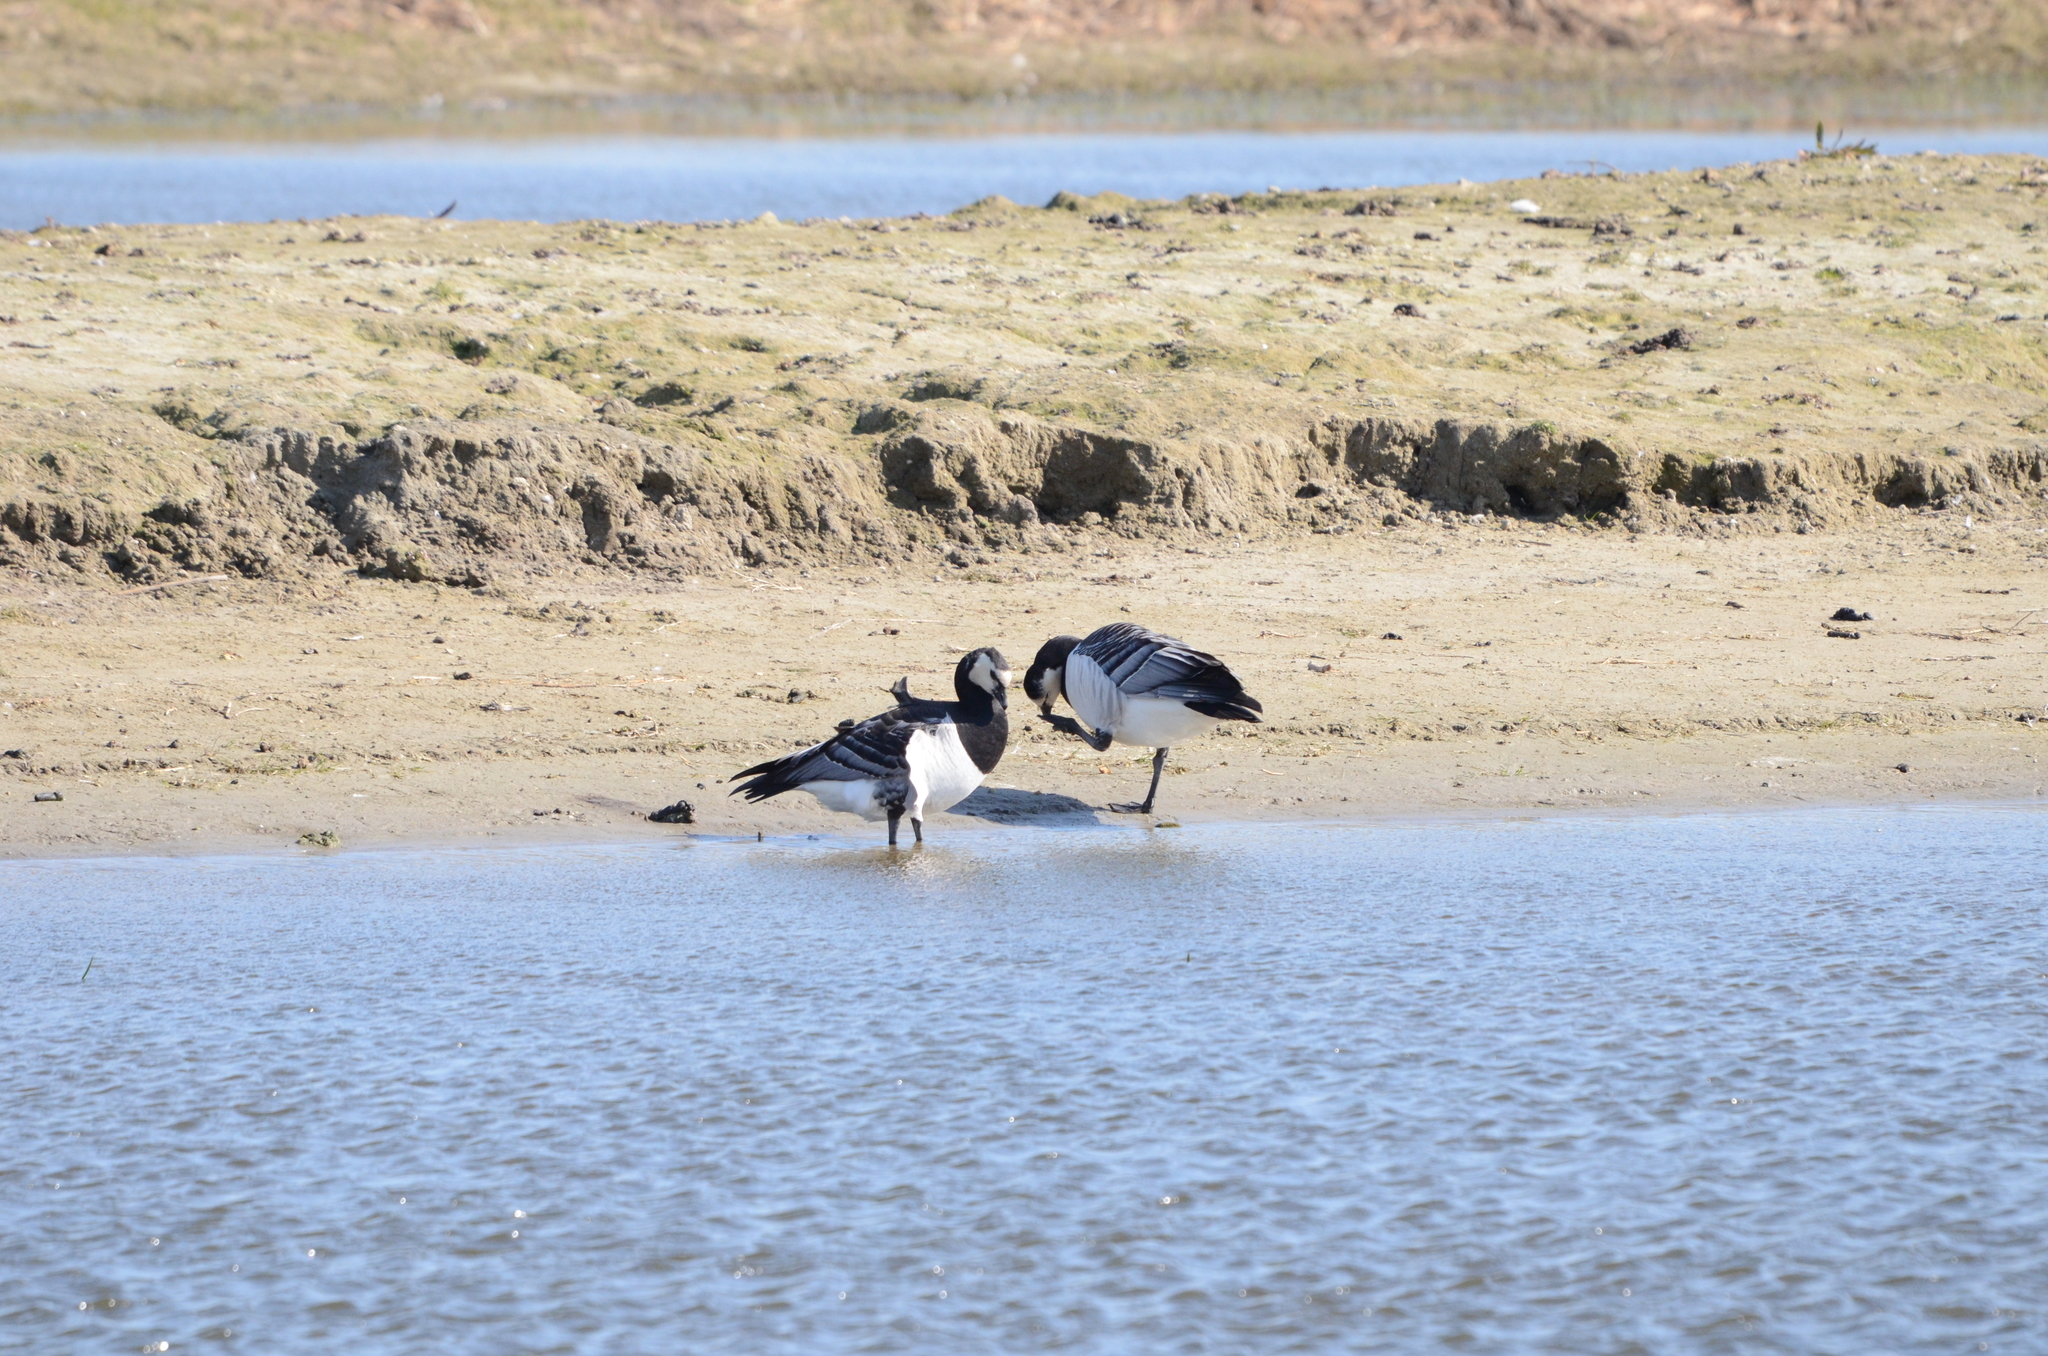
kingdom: Animalia
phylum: Chordata
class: Aves
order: Anseriformes
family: Anatidae
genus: Branta
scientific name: Branta leucopsis
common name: Barnacle goose
